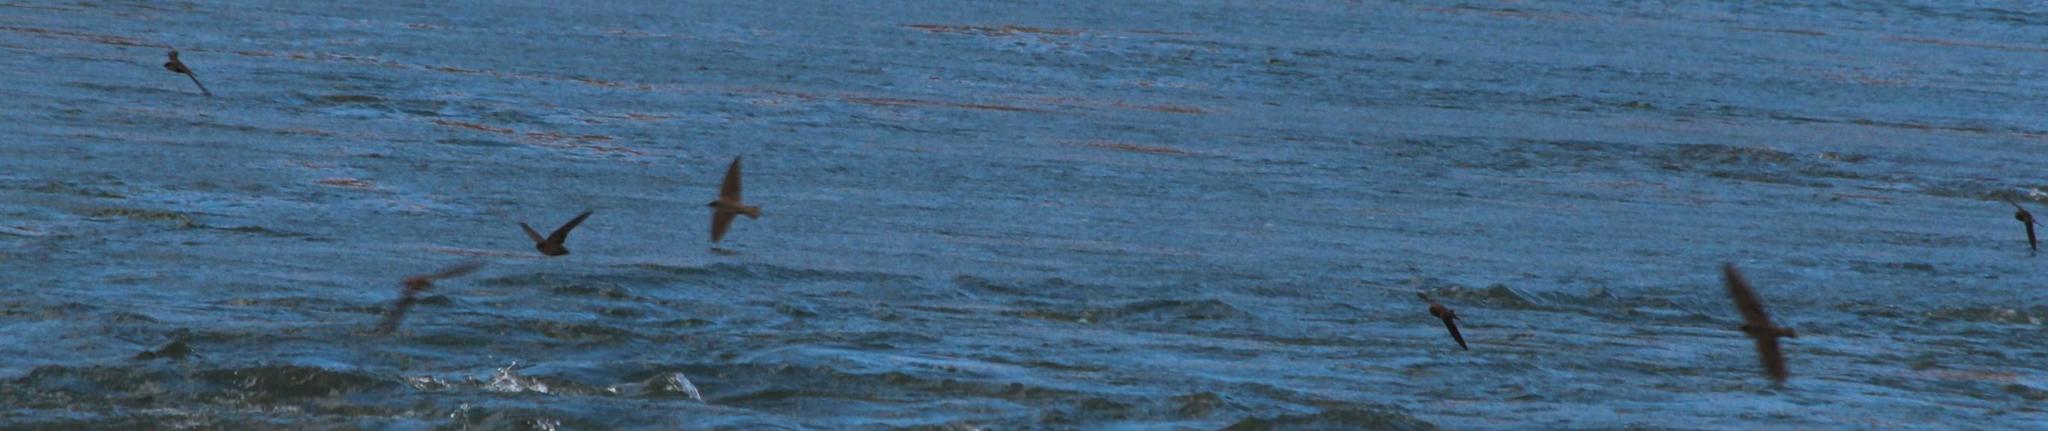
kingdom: Animalia
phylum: Chordata
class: Aves
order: Passeriformes
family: Hirundinidae
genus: Ptyonoprogne
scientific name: Ptyonoprogne fuligula
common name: Rock martin
